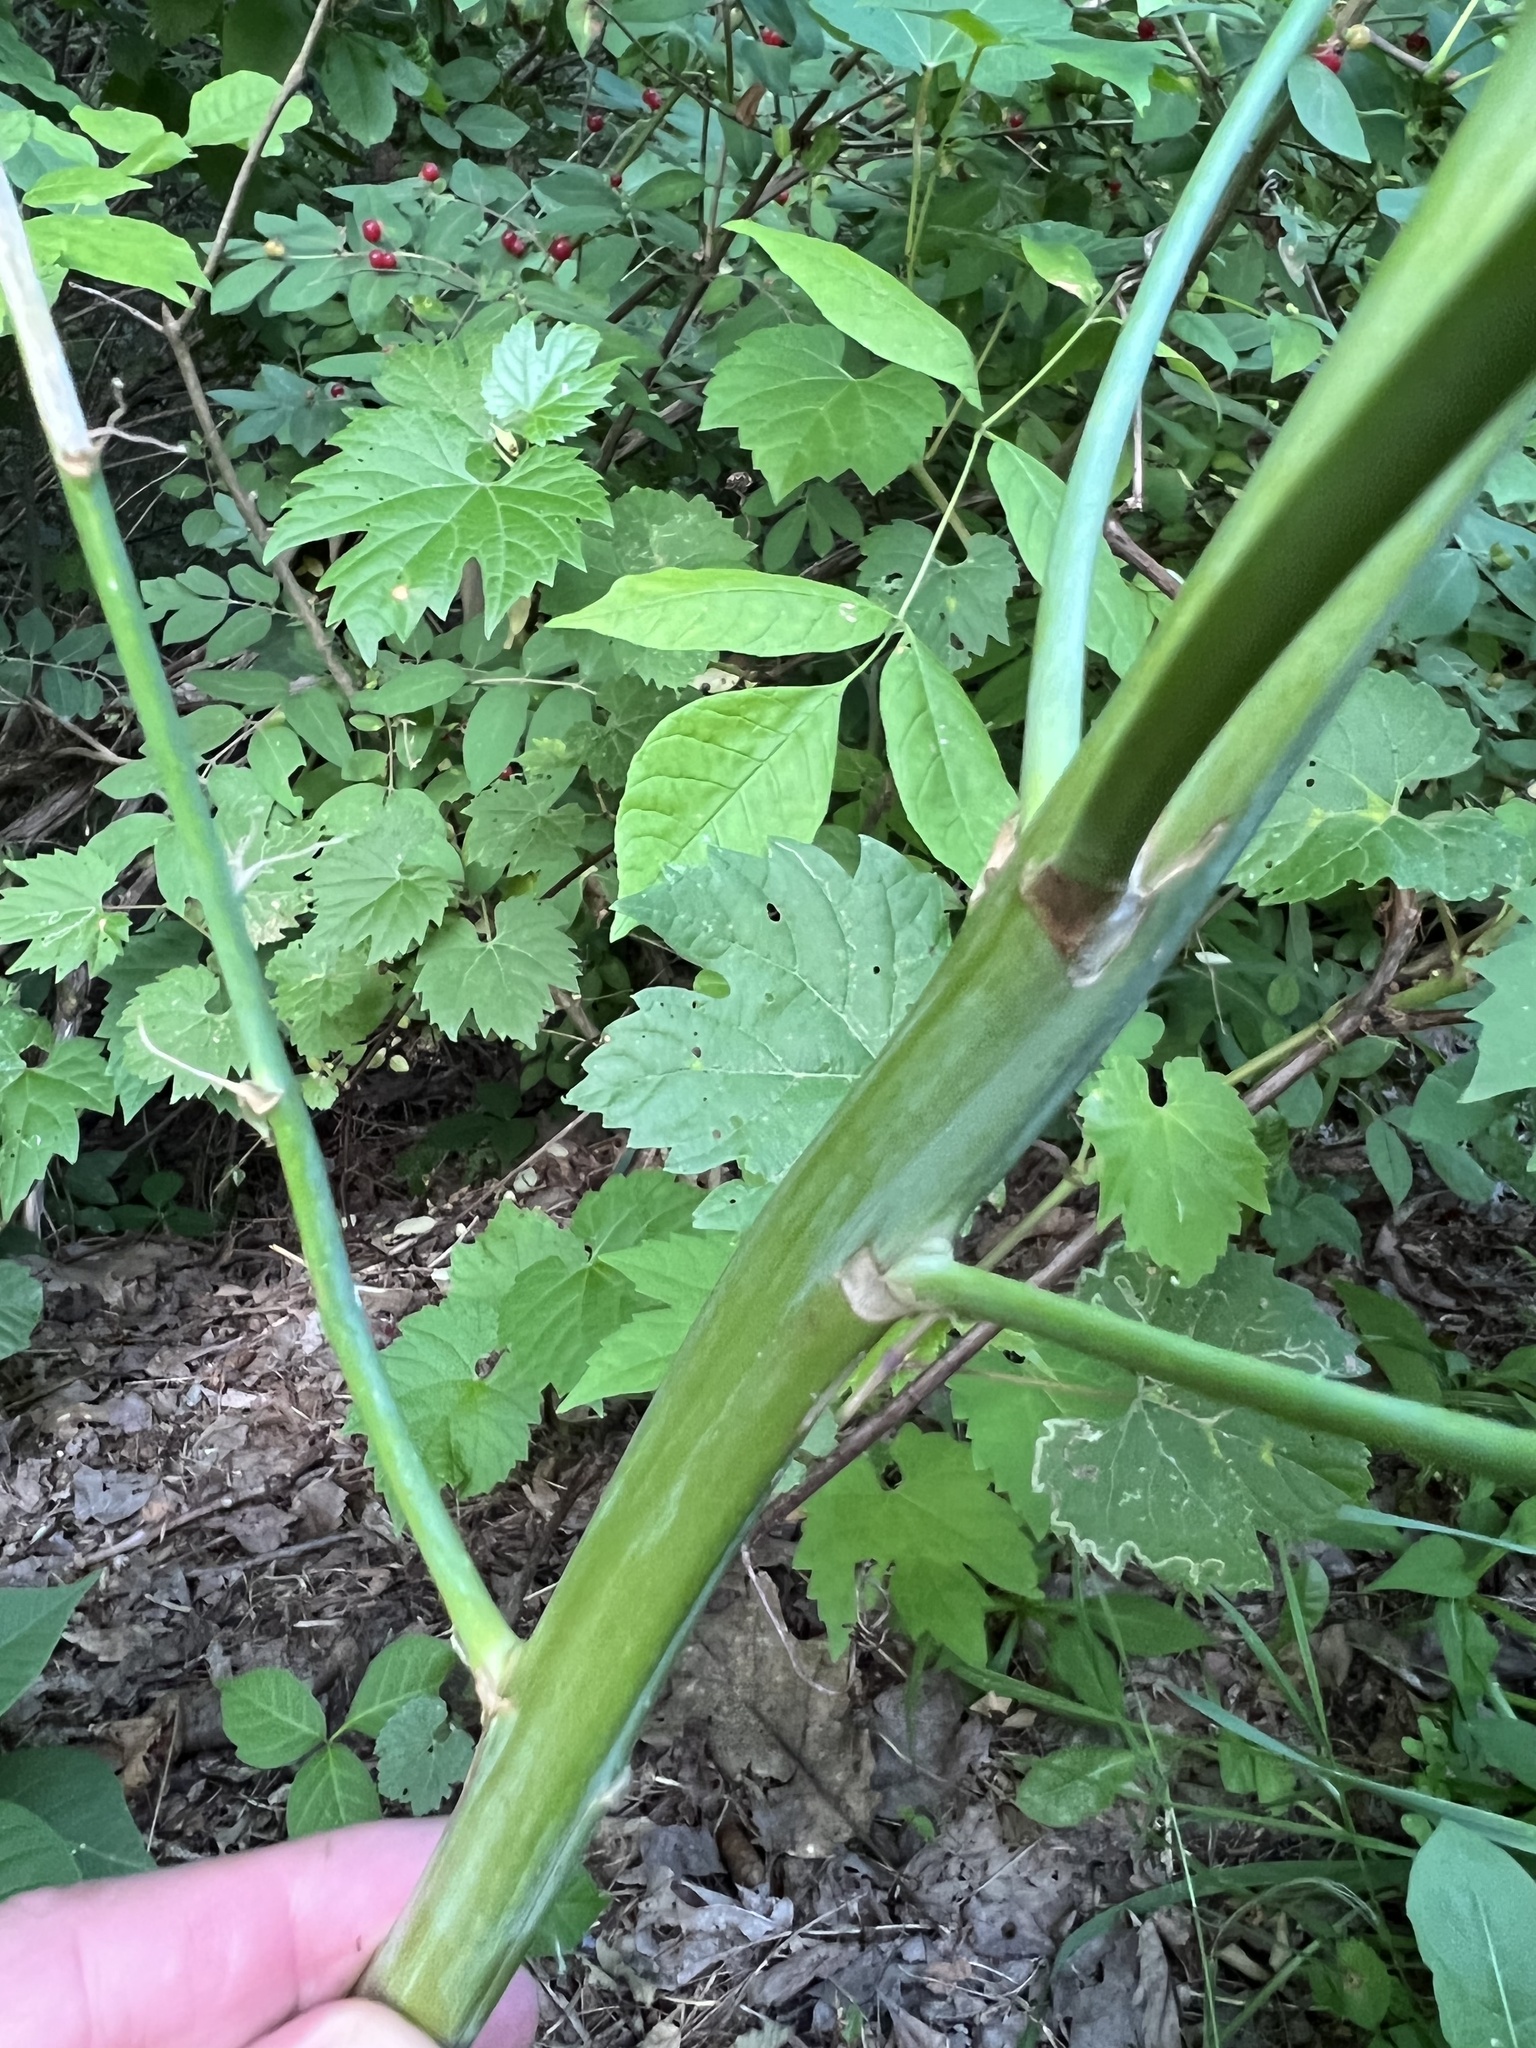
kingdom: Plantae
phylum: Tracheophyta
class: Liliopsida
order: Asparagales
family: Asparagaceae
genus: Asparagus
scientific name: Asparagus officinalis
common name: Garden asparagus
